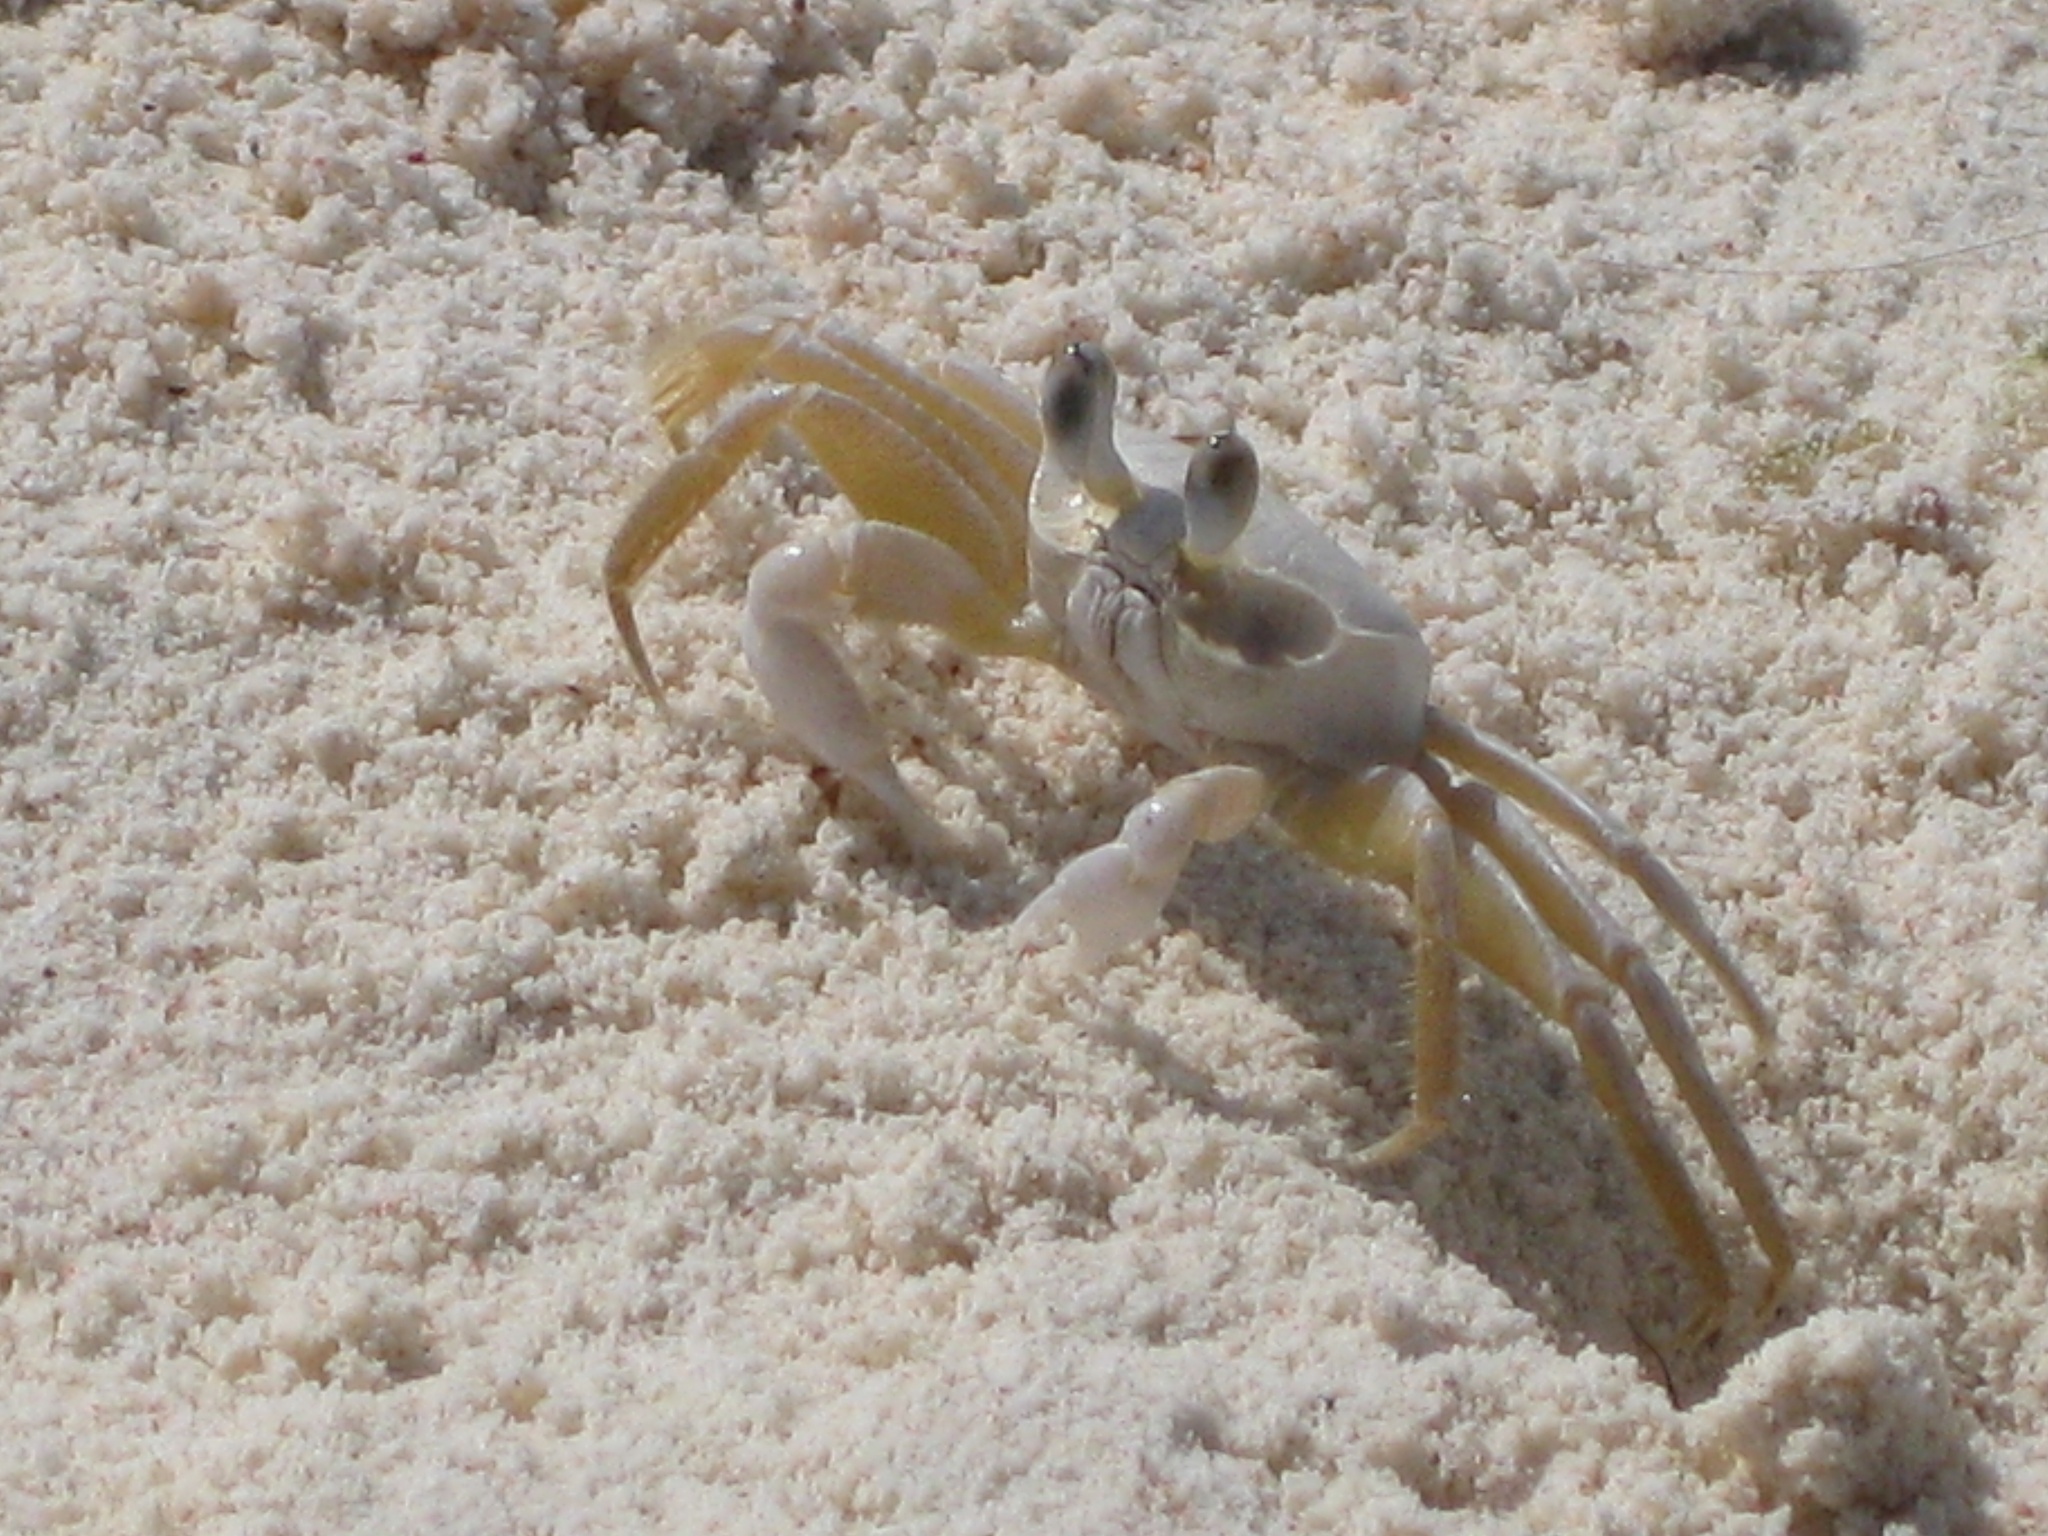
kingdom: Animalia
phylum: Arthropoda
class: Malacostraca
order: Decapoda
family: Ocypodidae
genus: Ocypode
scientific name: Ocypode quadrata
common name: Ghost crab
